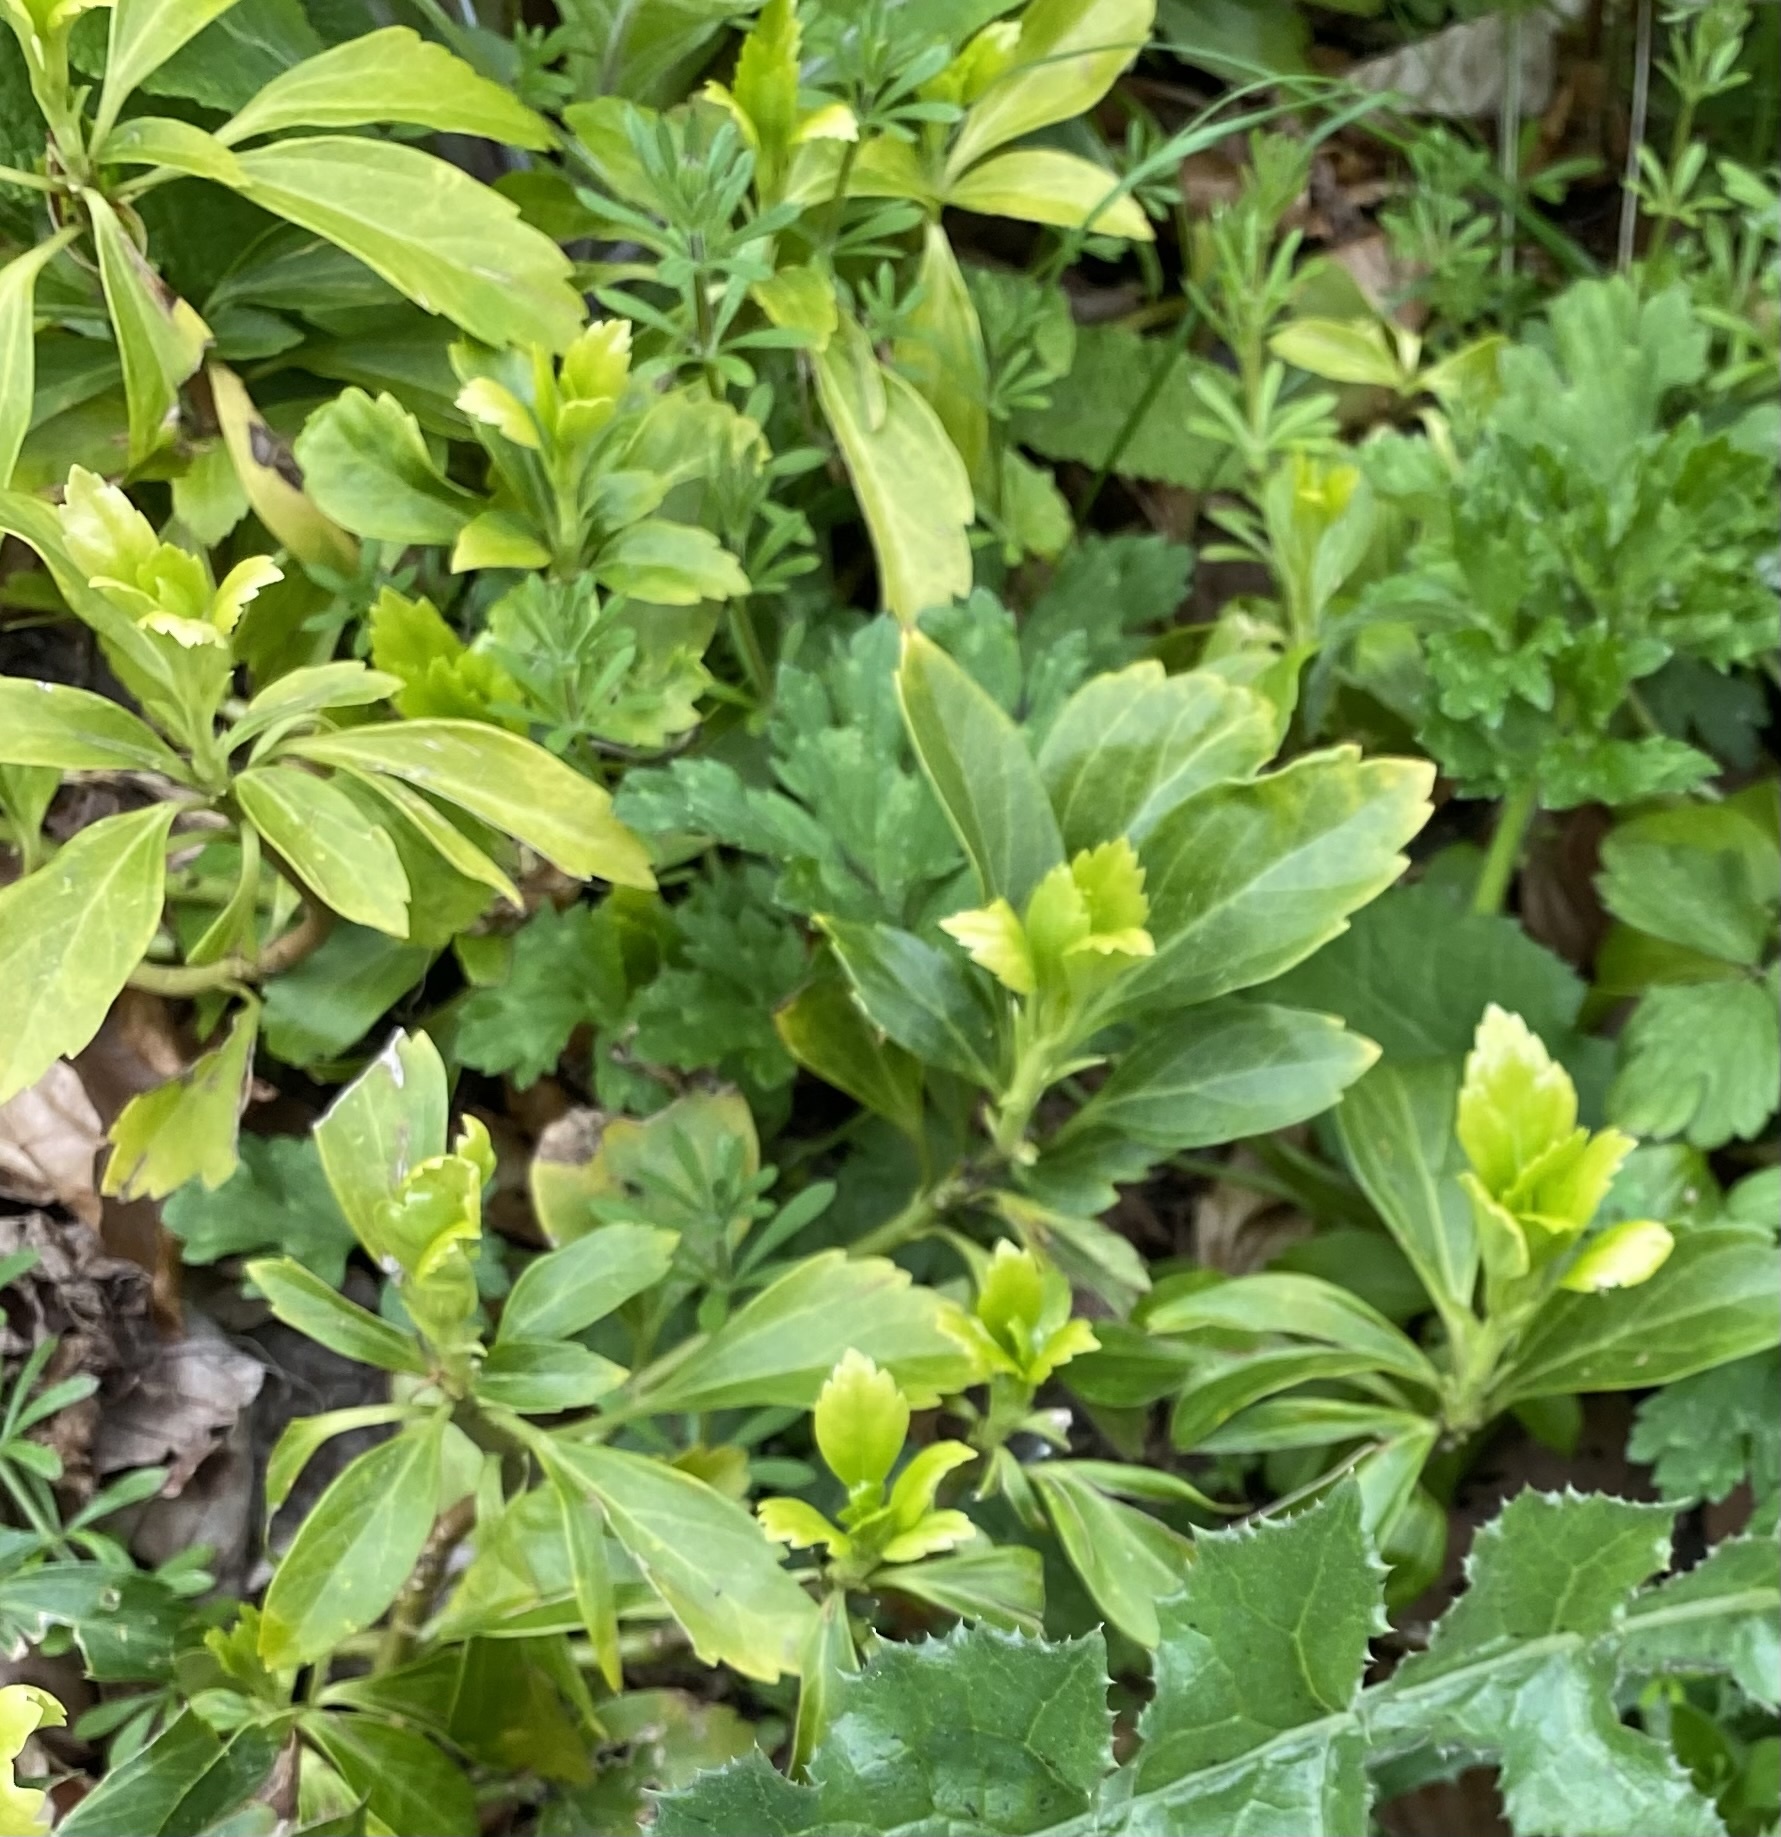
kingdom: Plantae
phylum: Tracheophyta
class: Magnoliopsida
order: Buxales
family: Buxaceae
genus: Pachysandra
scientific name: Pachysandra terminalis
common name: Japanese pachysandra
